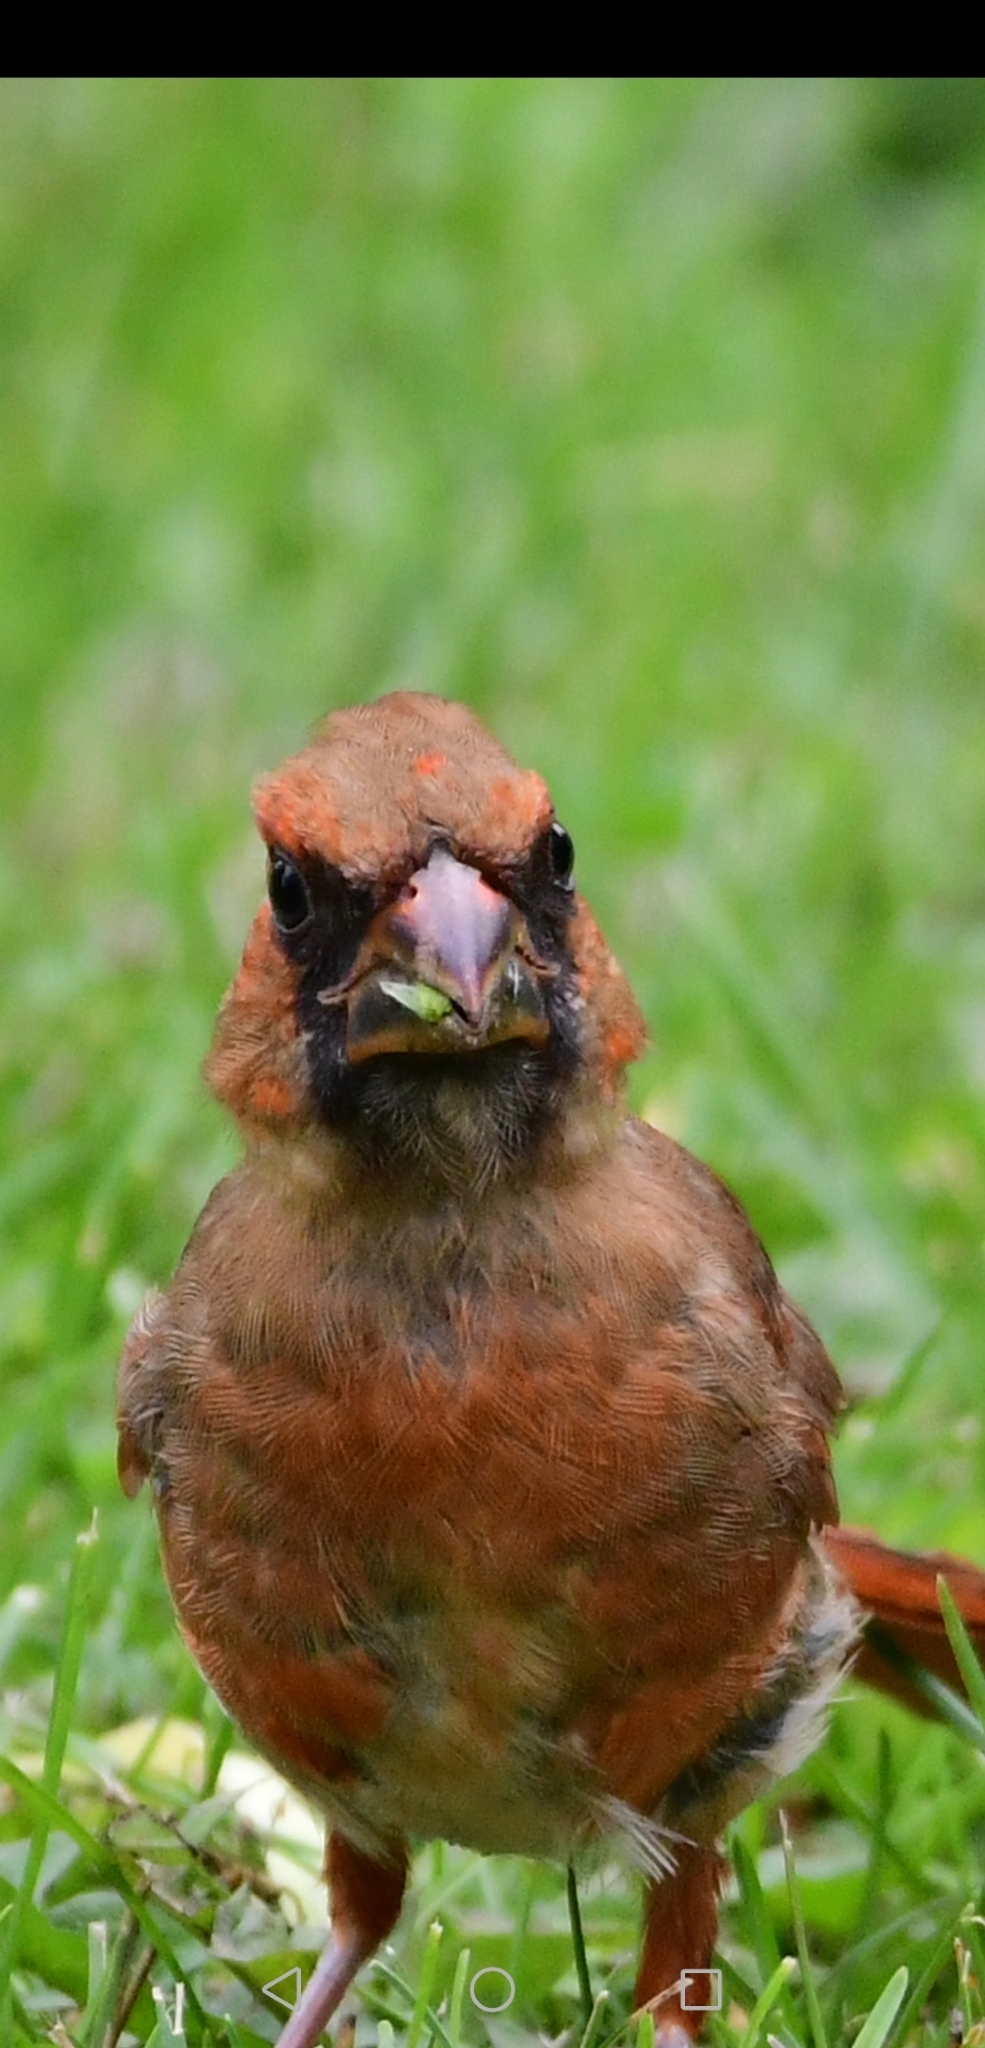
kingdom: Animalia
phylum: Chordata
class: Aves
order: Passeriformes
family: Cardinalidae
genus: Cardinalis
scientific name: Cardinalis cardinalis
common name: Northern cardinal
